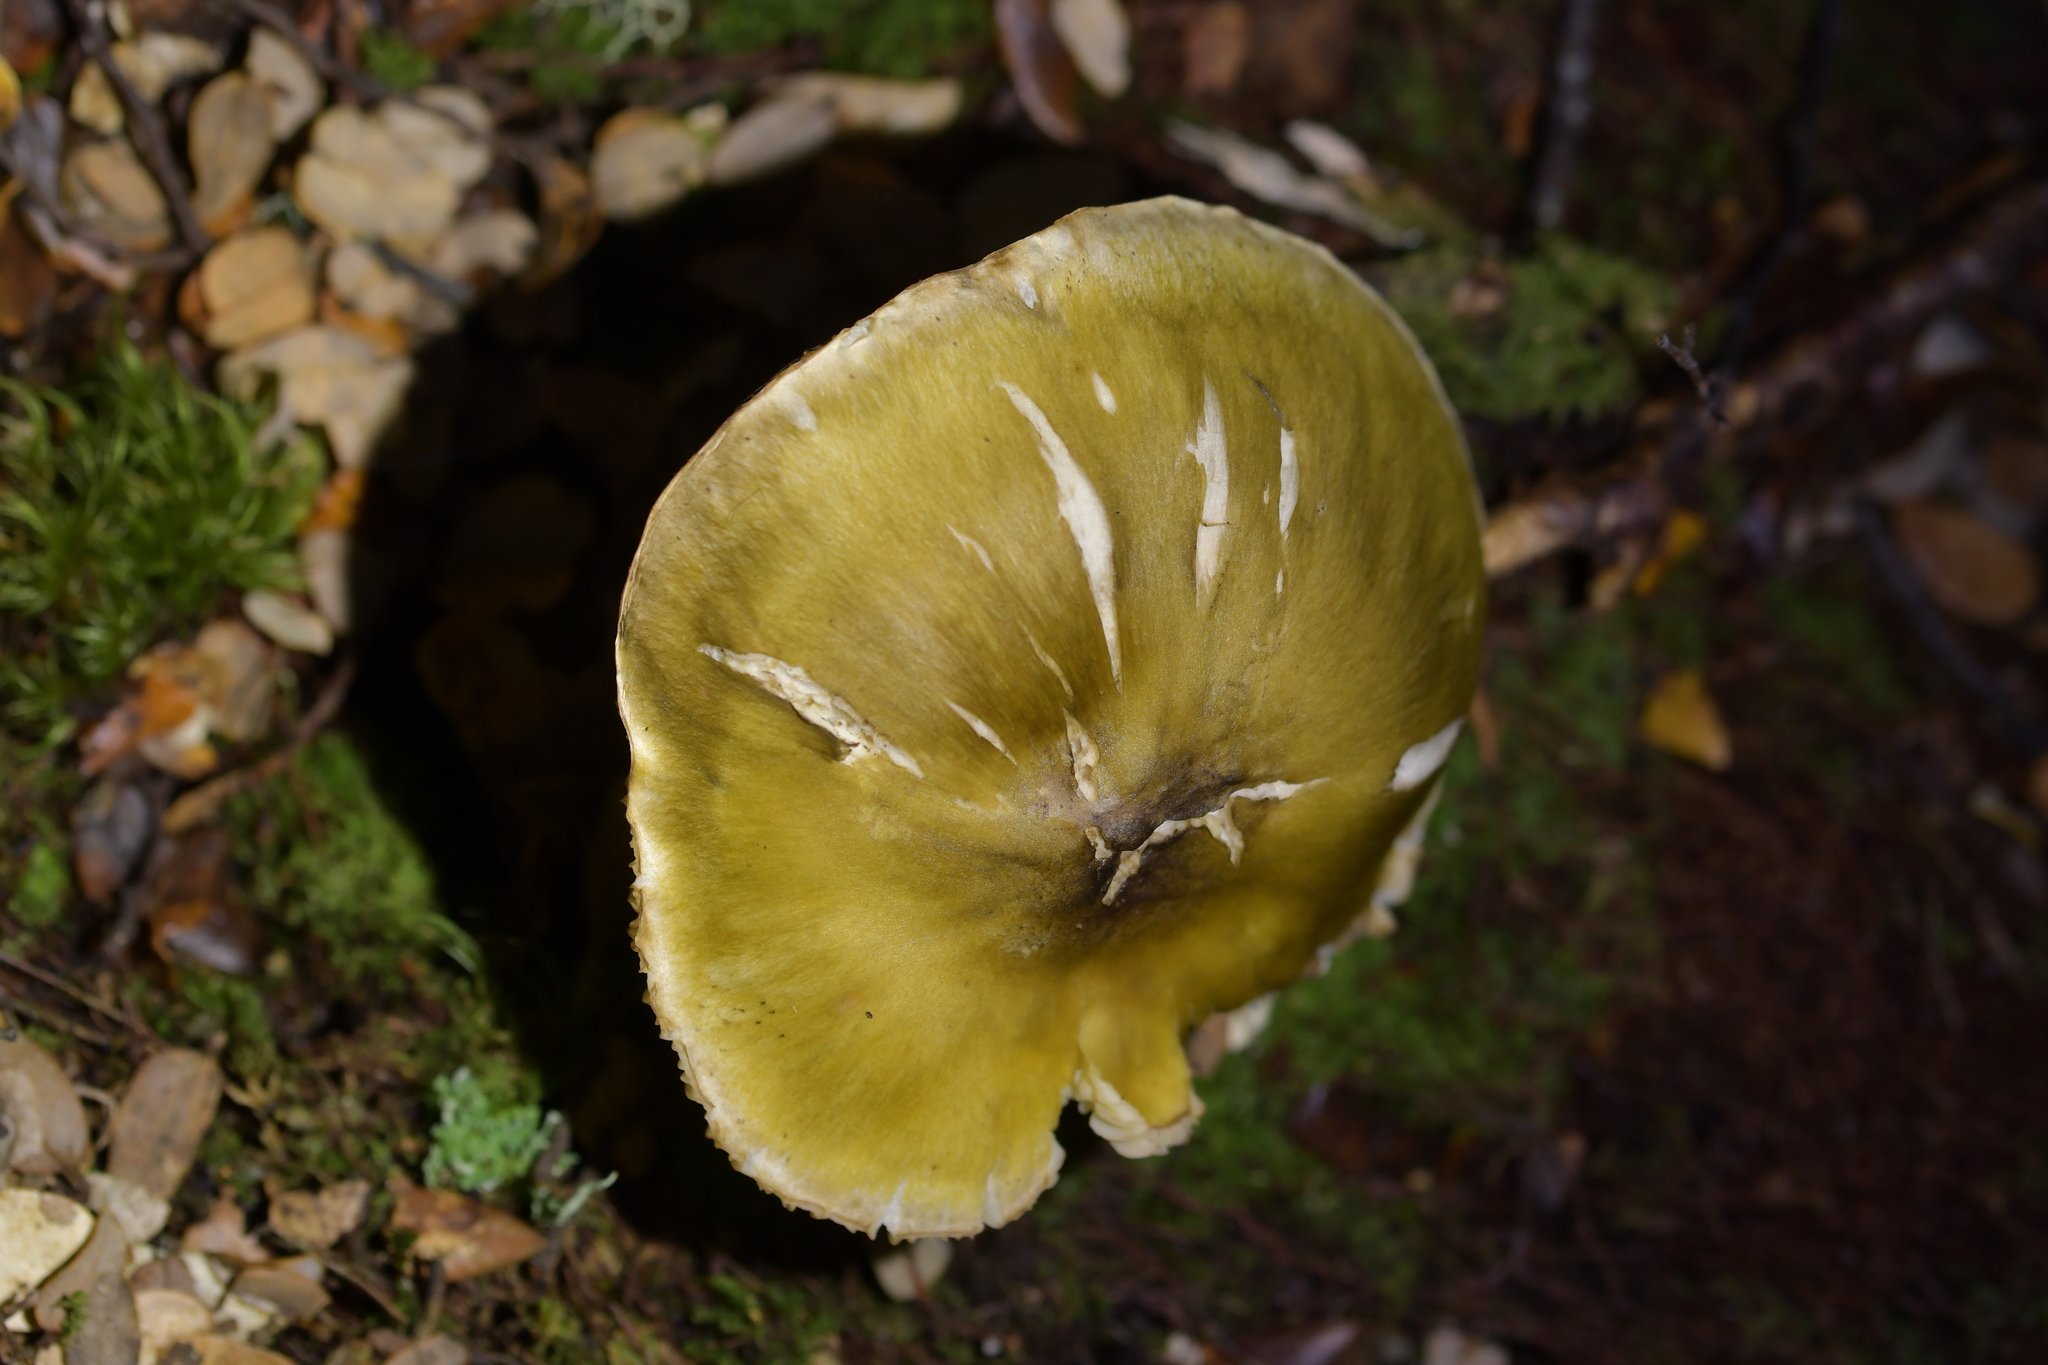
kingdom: Fungi
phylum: Basidiomycota
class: Agaricomycetes
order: Agaricales
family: Tricholomataceae
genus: Tricholoma
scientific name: Tricholoma viridiolivaceum
